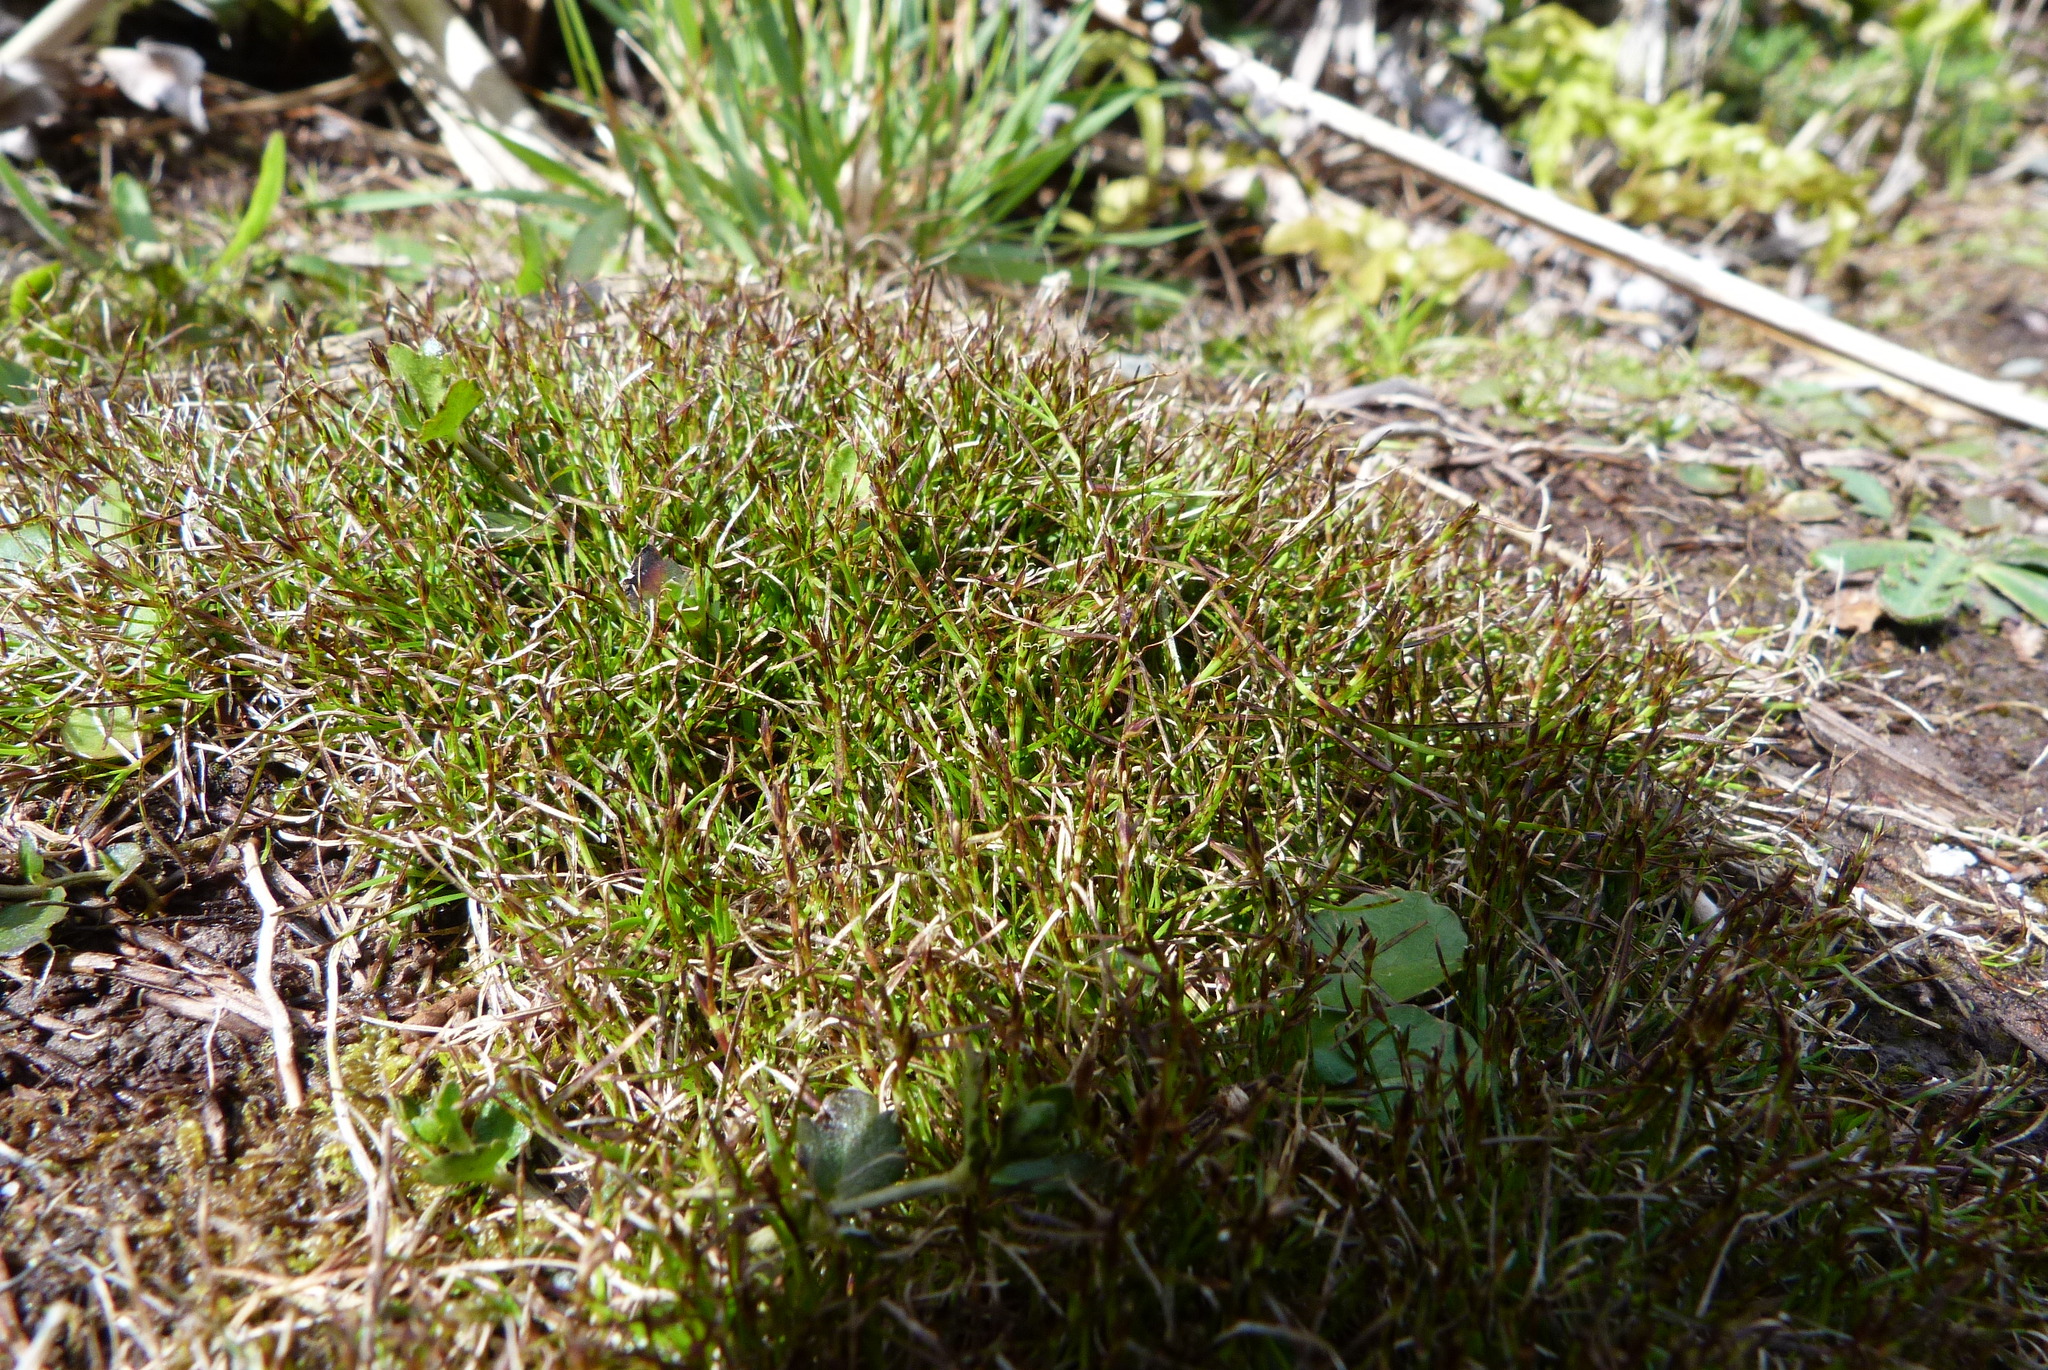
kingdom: Plantae
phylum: Tracheophyta
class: Liliopsida
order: Poales
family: Cyperaceae
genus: Schoenus
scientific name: Schoenus maschalinus
